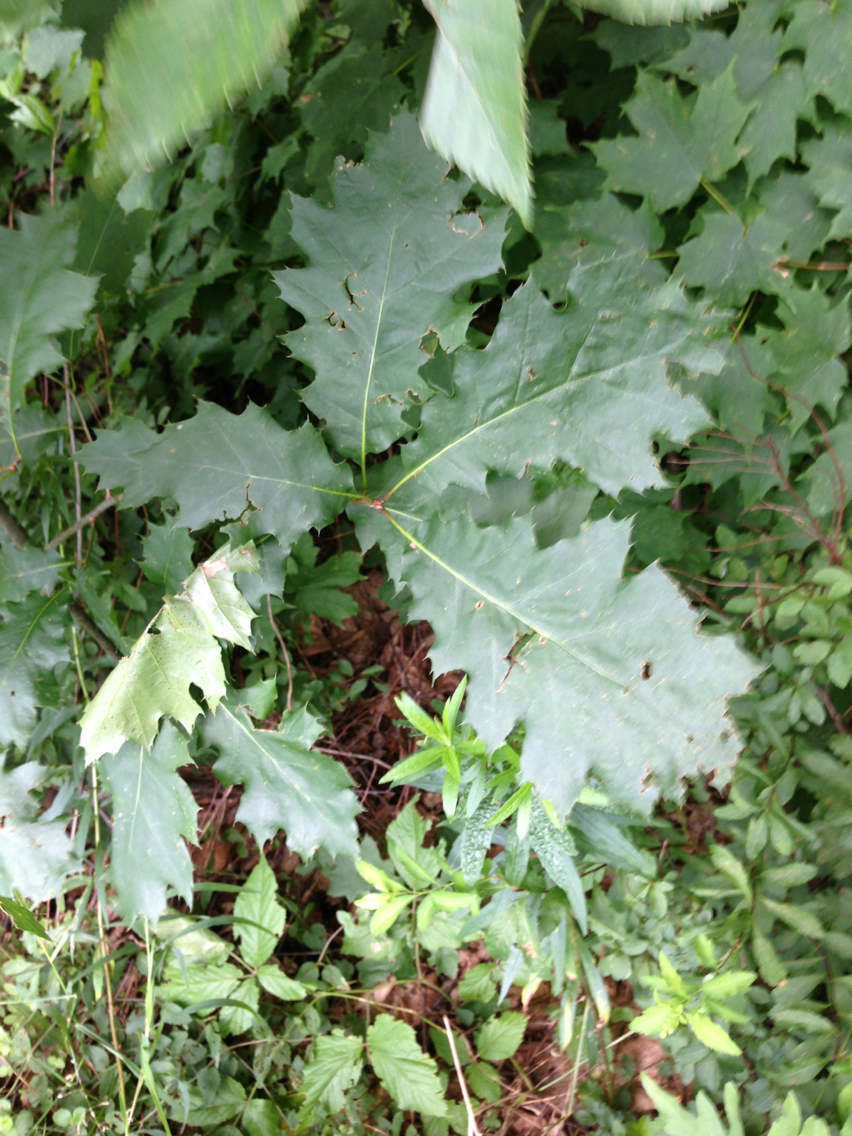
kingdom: Plantae
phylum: Tracheophyta
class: Magnoliopsida
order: Fagales
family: Fagaceae
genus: Quercus
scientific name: Quercus rubra
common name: Red oak
